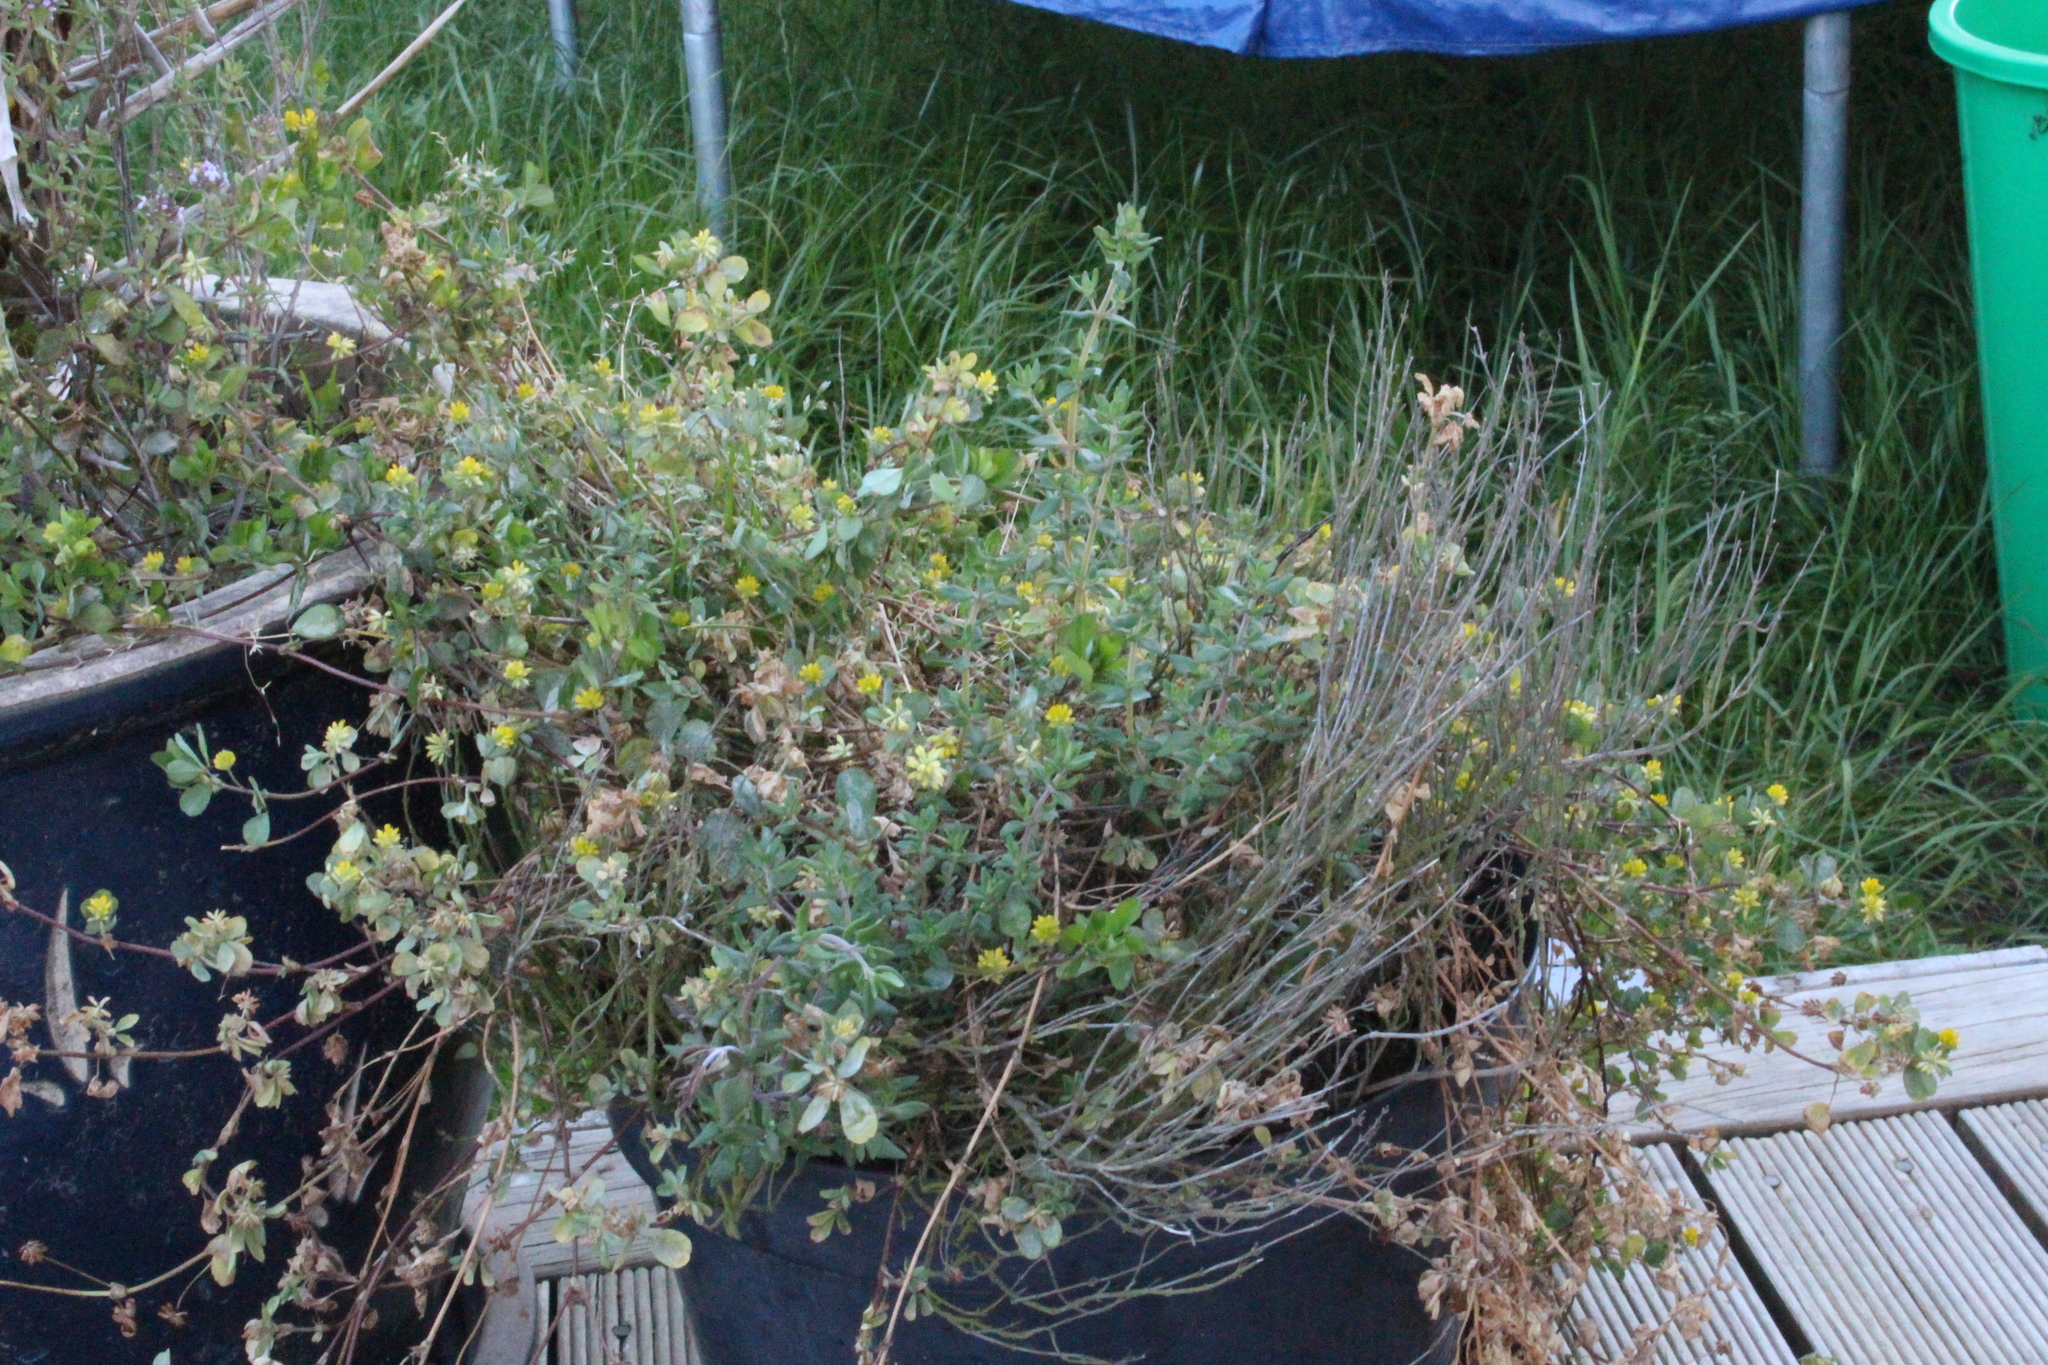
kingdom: Plantae
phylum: Tracheophyta
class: Magnoliopsida
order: Fabales
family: Fabaceae
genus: Trifolium
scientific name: Trifolium dubium
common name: Suckling clover
